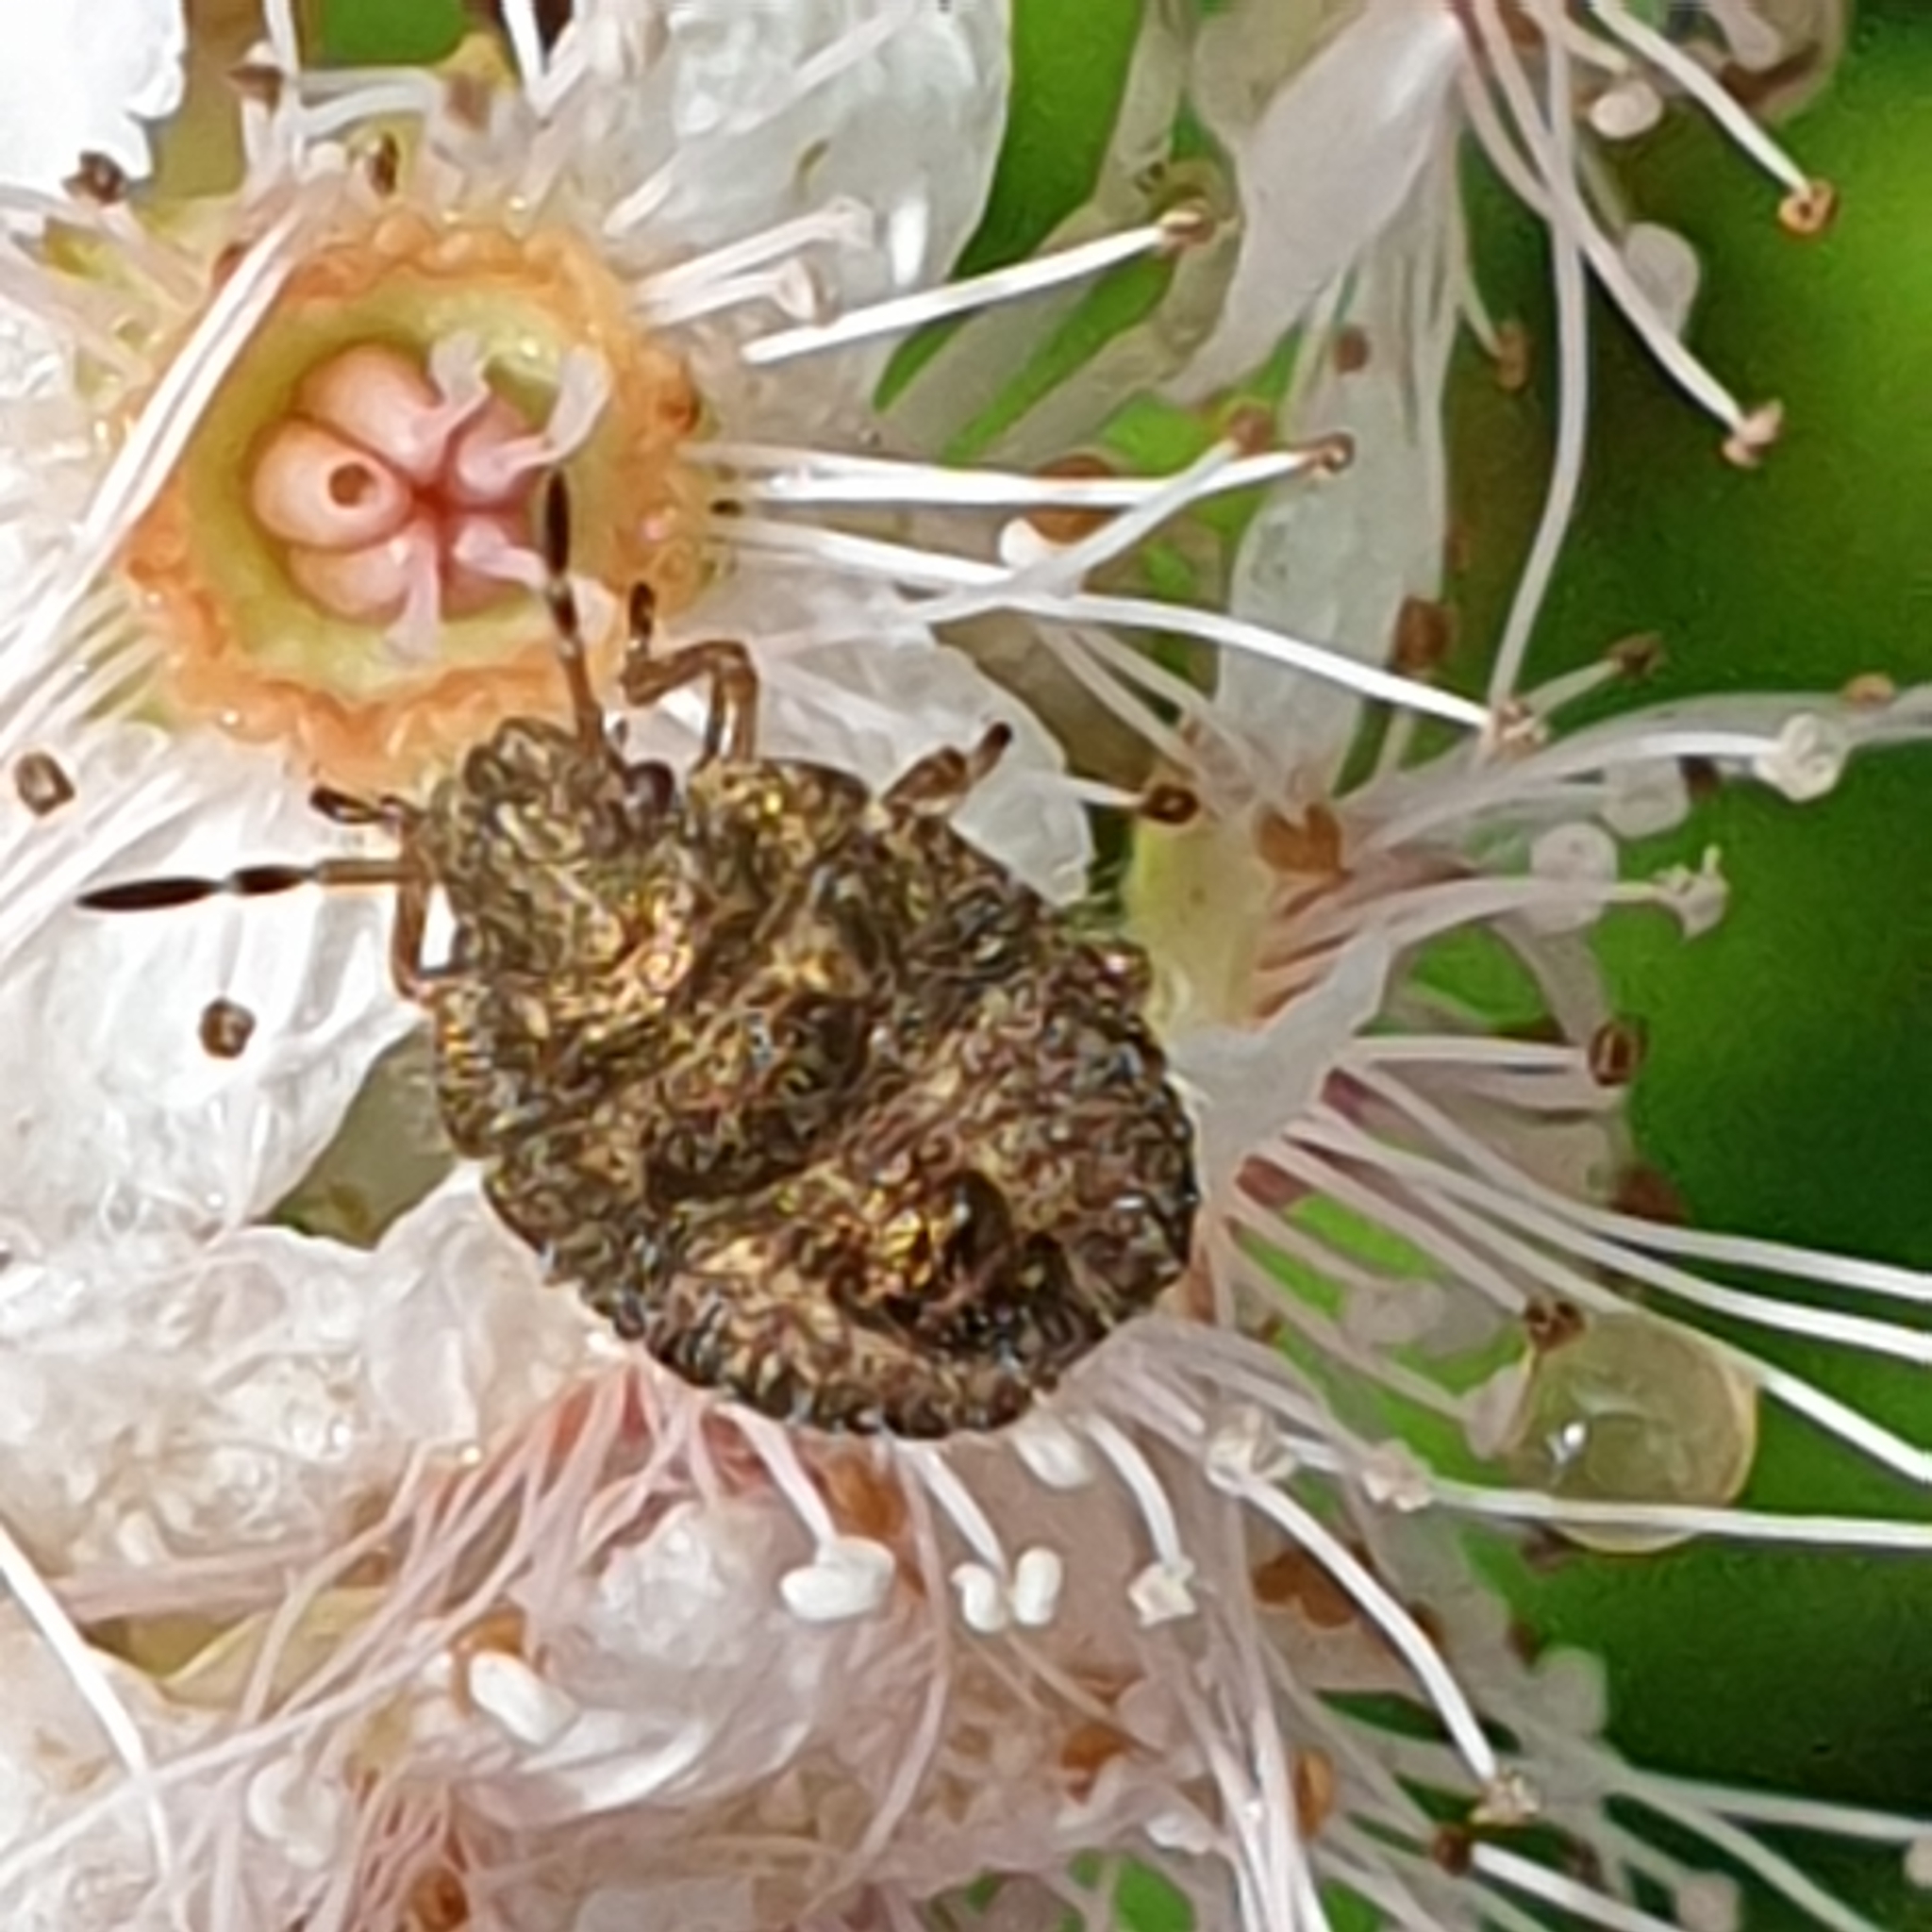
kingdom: Animalia
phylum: Arthropoda
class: Insecta
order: Hemiptera
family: Pentatomidae
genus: Dolycoris
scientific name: Dolycoris baccarum
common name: Sloe bug
